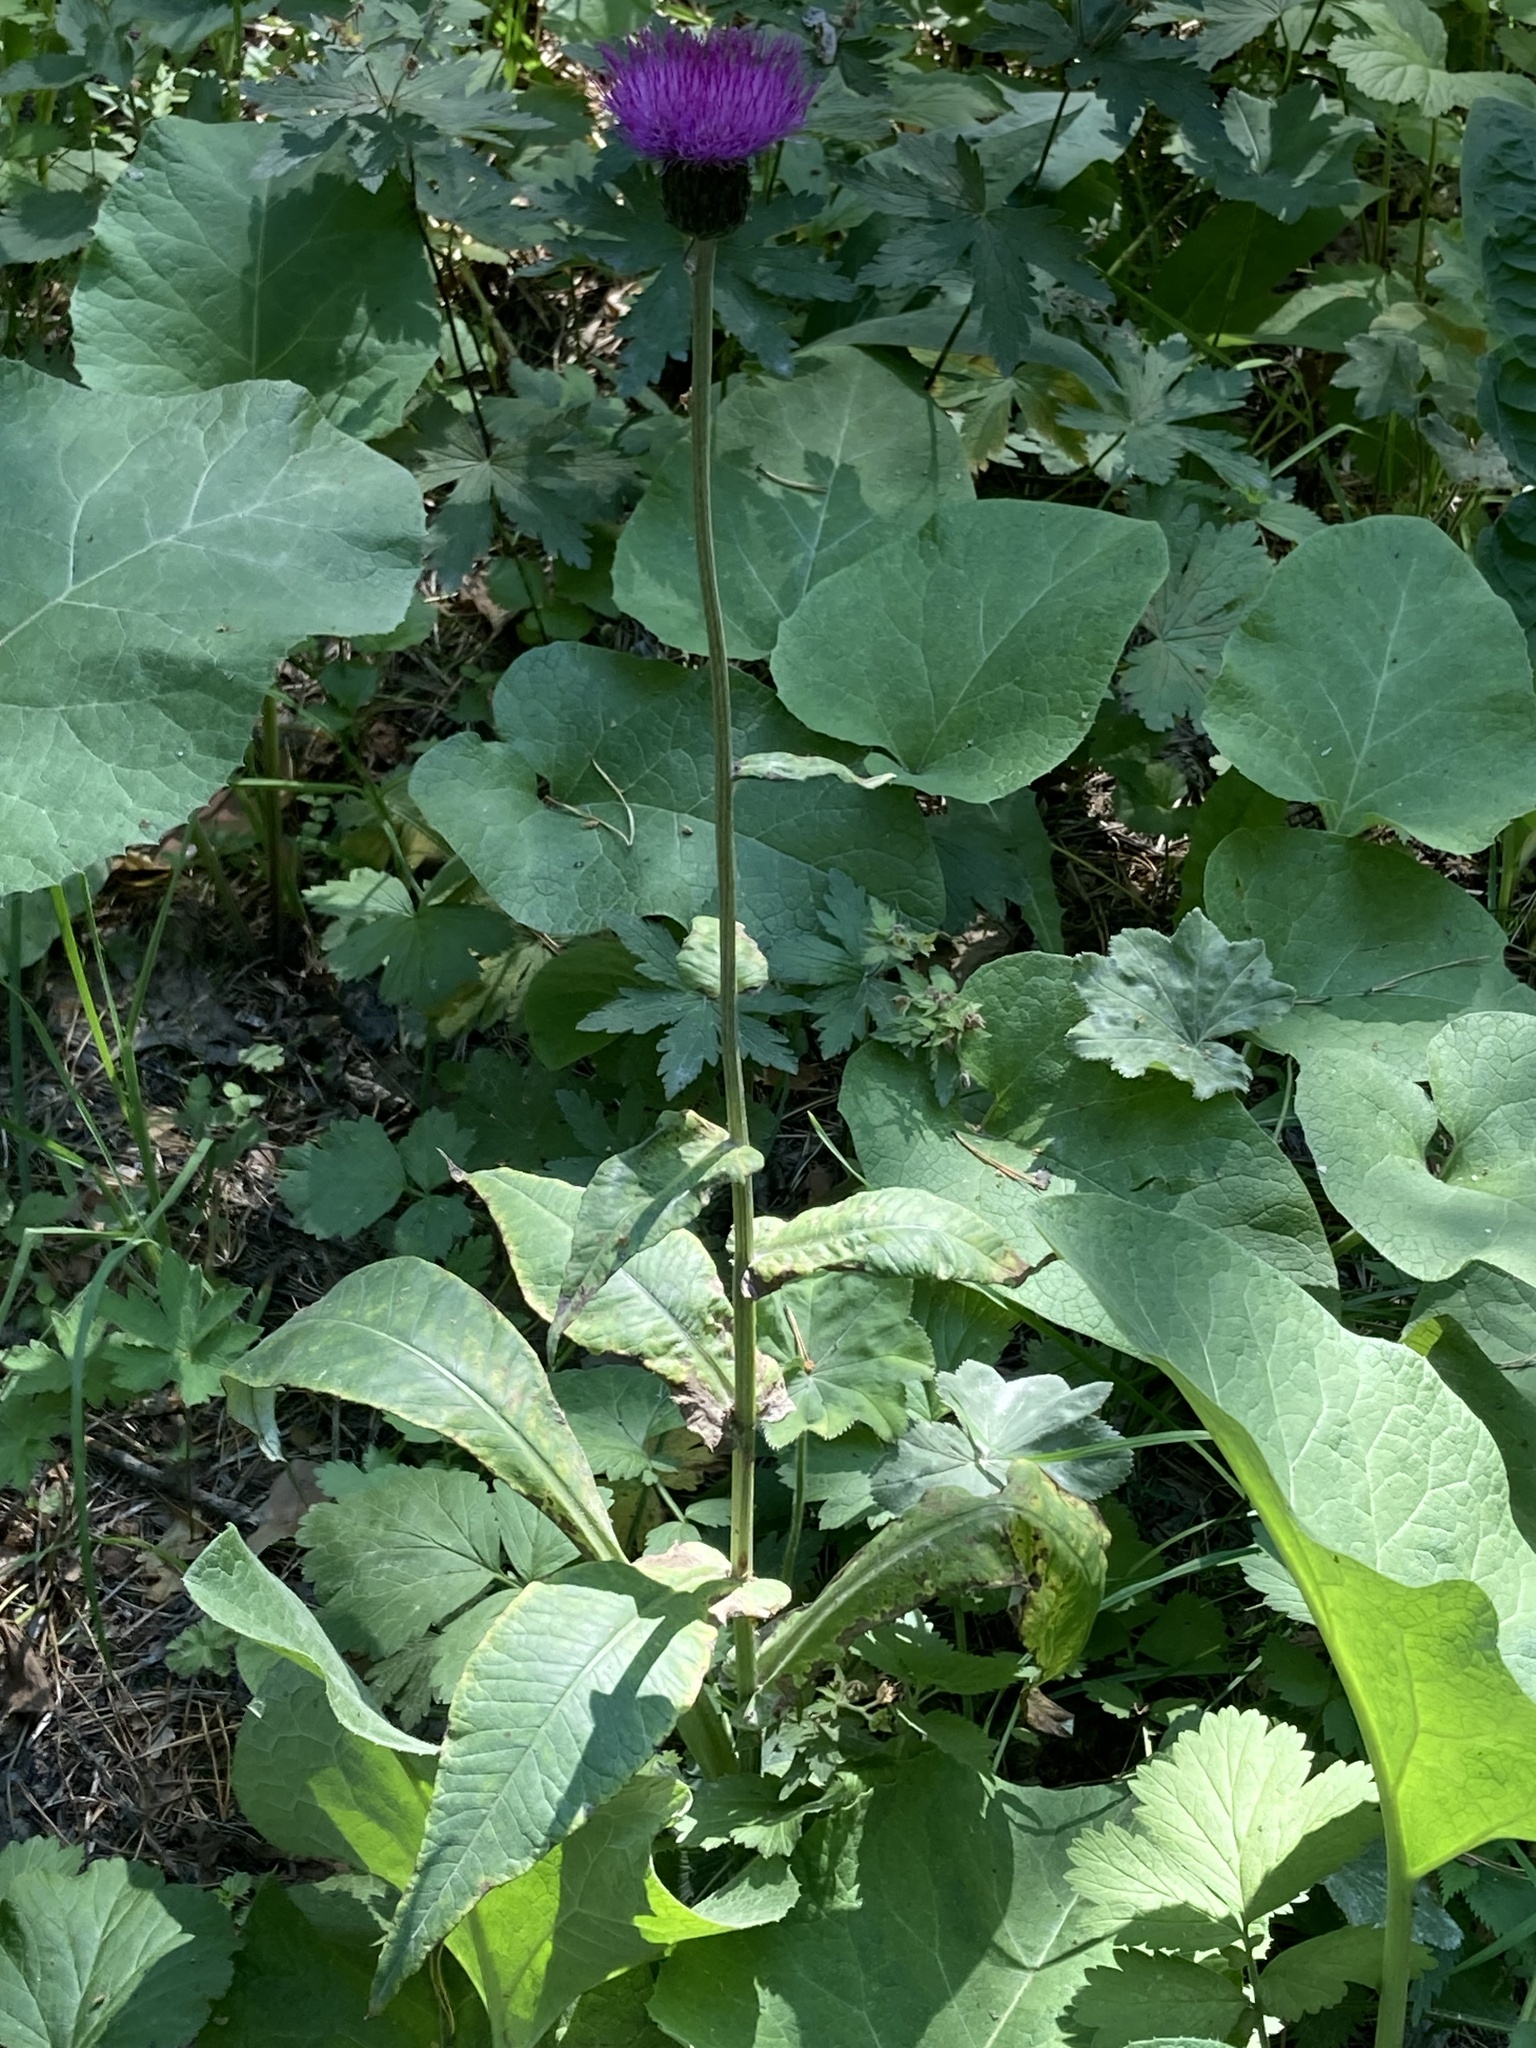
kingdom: Plantae
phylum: Tracheophyta
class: Magnoliopsida
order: Asterales
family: Asteraceae
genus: Cirsium
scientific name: Cirsium heterophyllum
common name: Melancholy thistle
